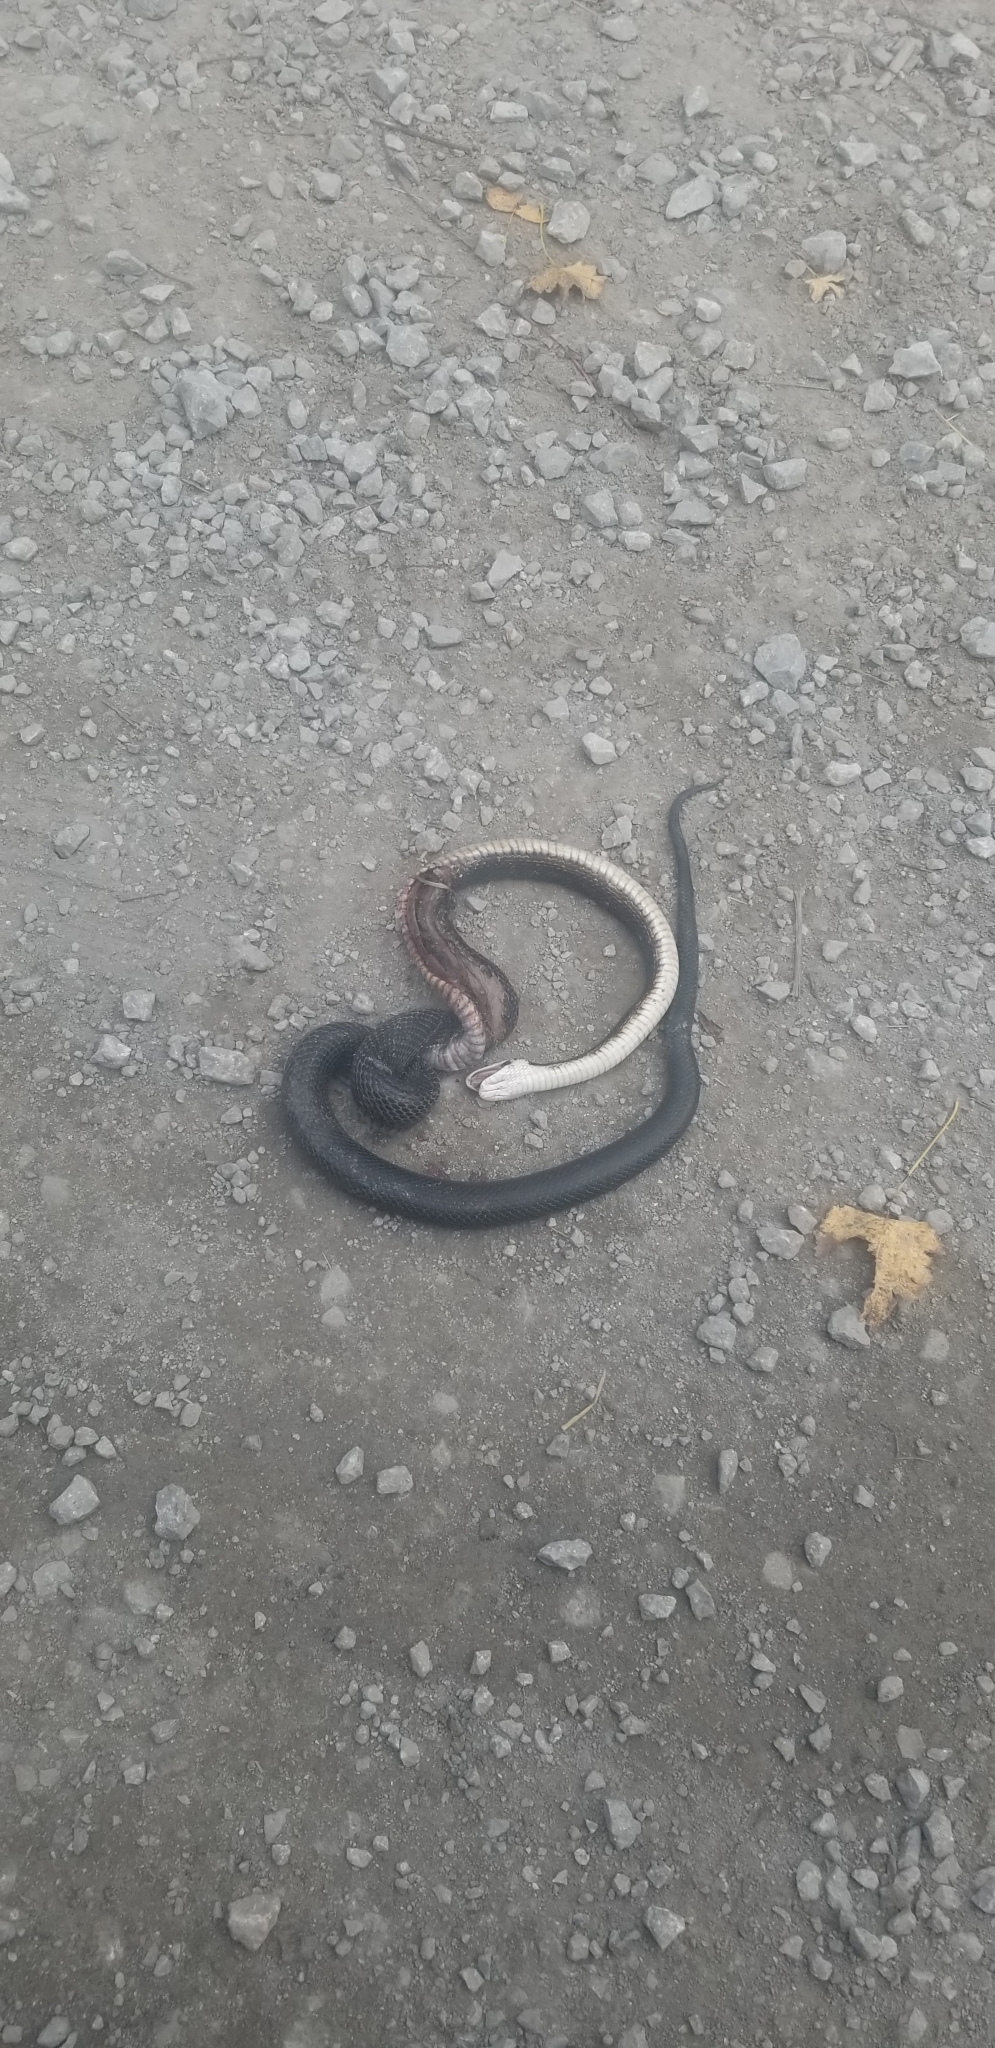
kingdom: Animalia
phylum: Chordata
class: Squamata
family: Colubridae
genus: Pantherophis
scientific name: Pantherophis obsoletus
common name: Black rat snake
